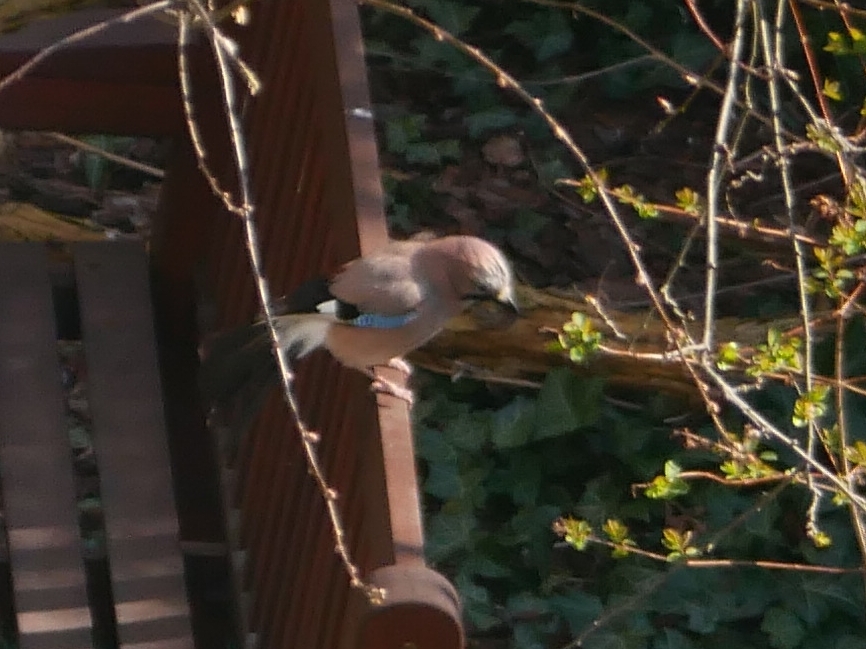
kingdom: Animalia
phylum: Chordata
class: Aves
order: Passeriformes
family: Corvidae
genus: Garrulus
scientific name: Garrulus glandarius
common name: Eurasian jay
